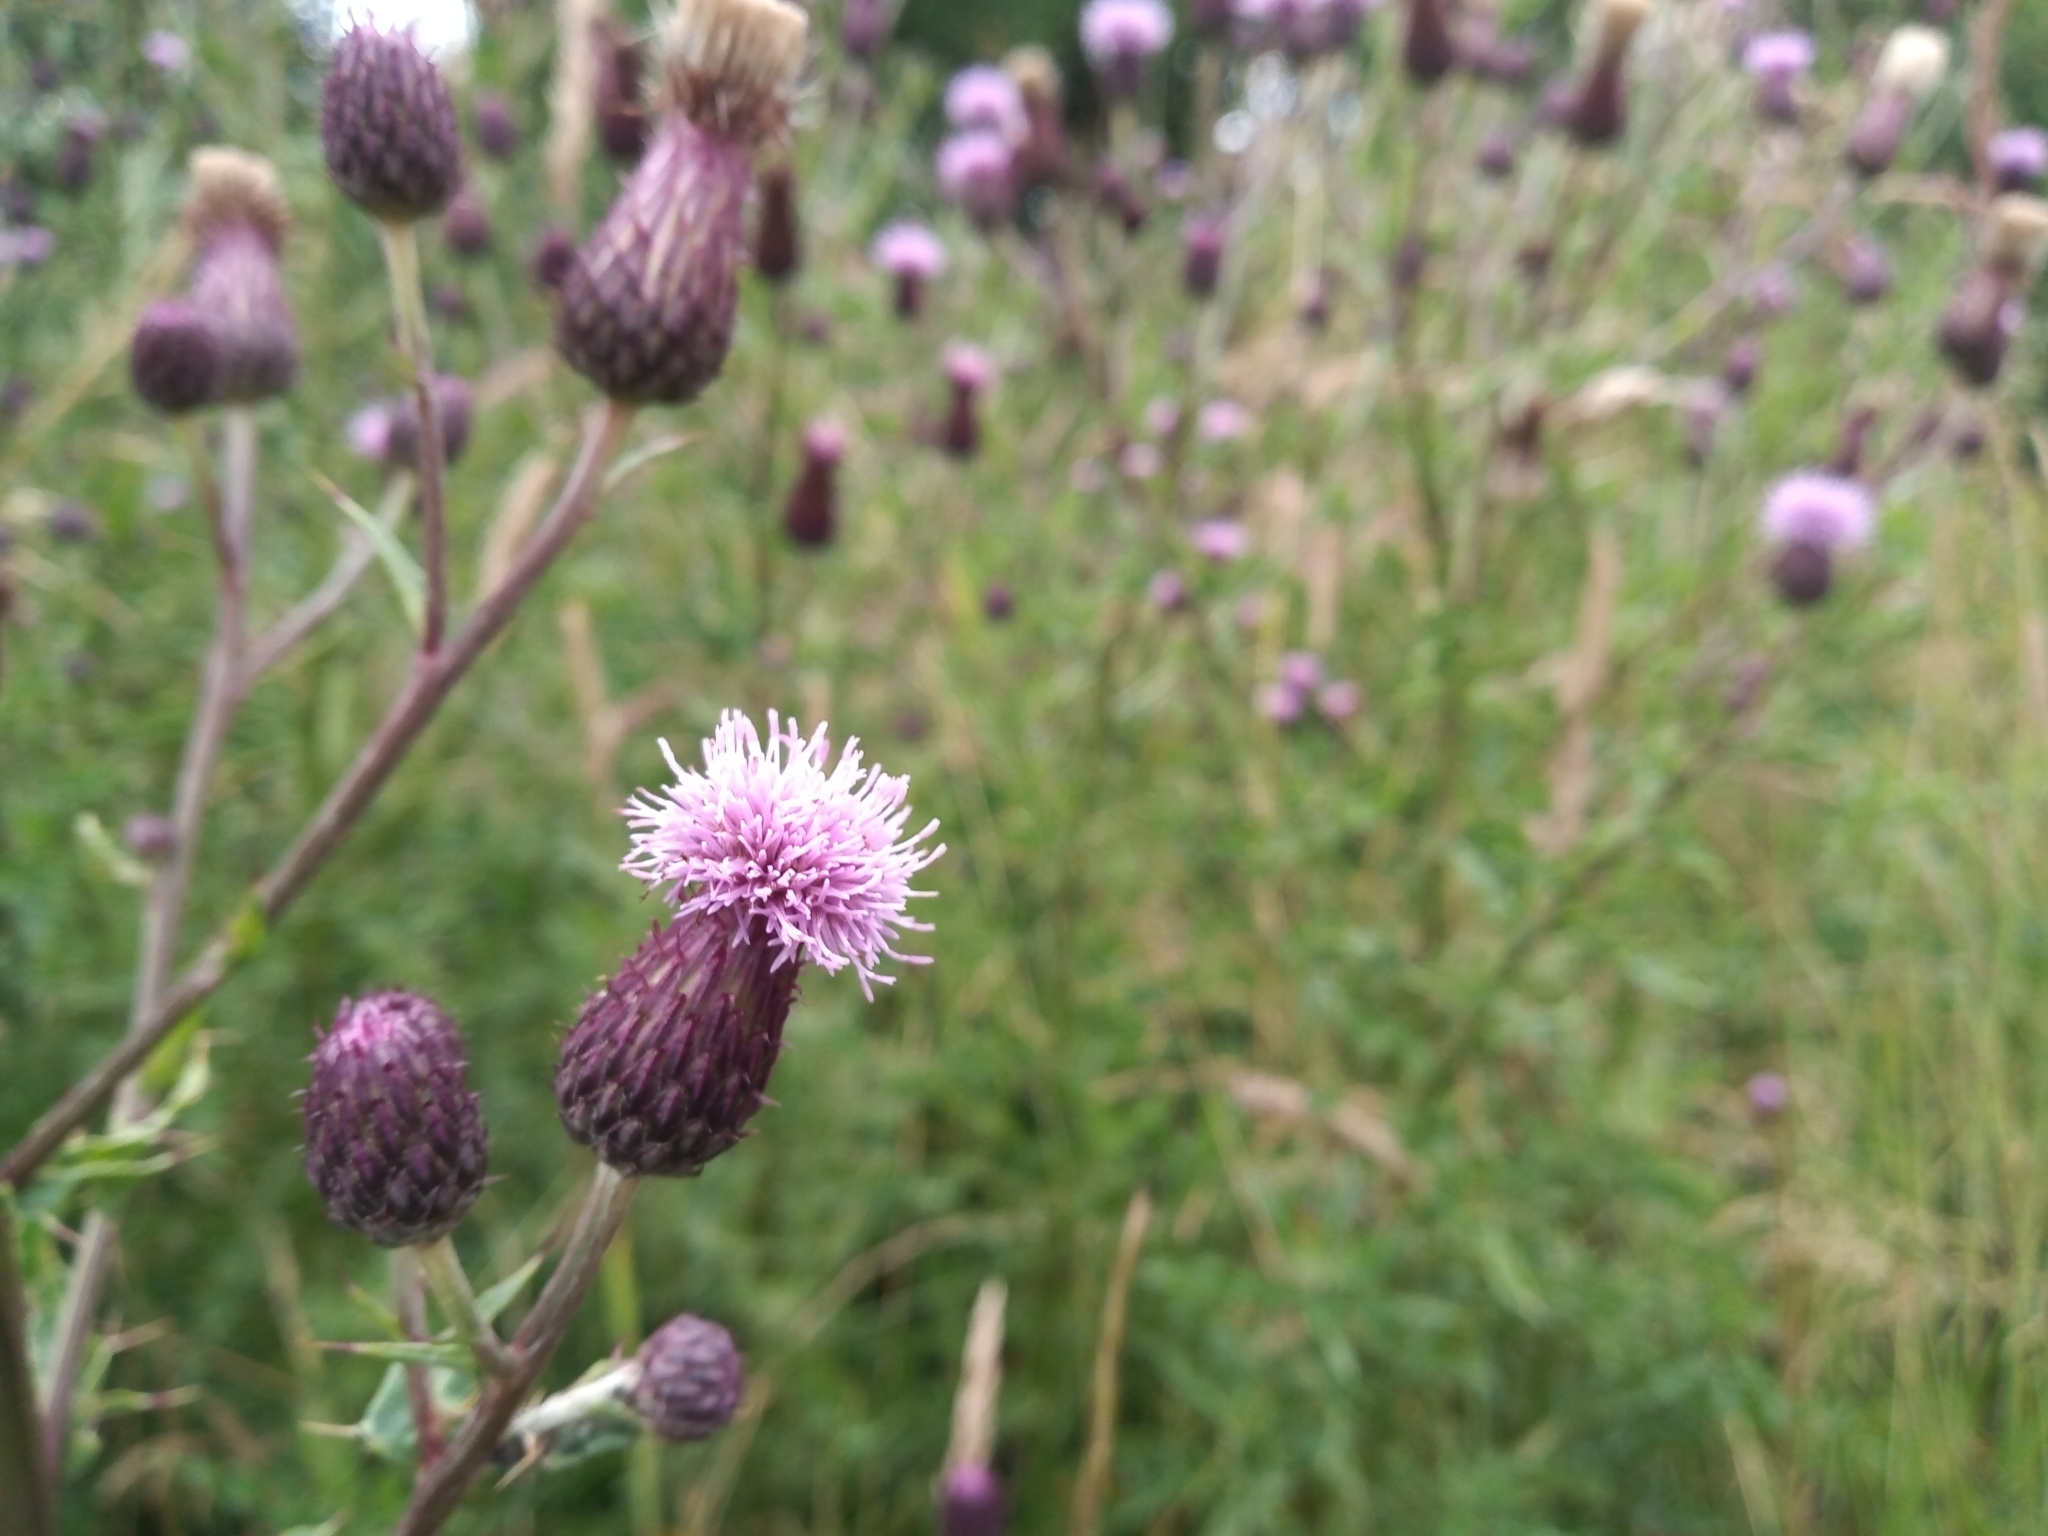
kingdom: Plantae
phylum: Tracheophyta
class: Magnoliopsida
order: Asterales
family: Asteraceae
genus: Cirsium
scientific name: Cirsium arvense
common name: Creeping thistle
